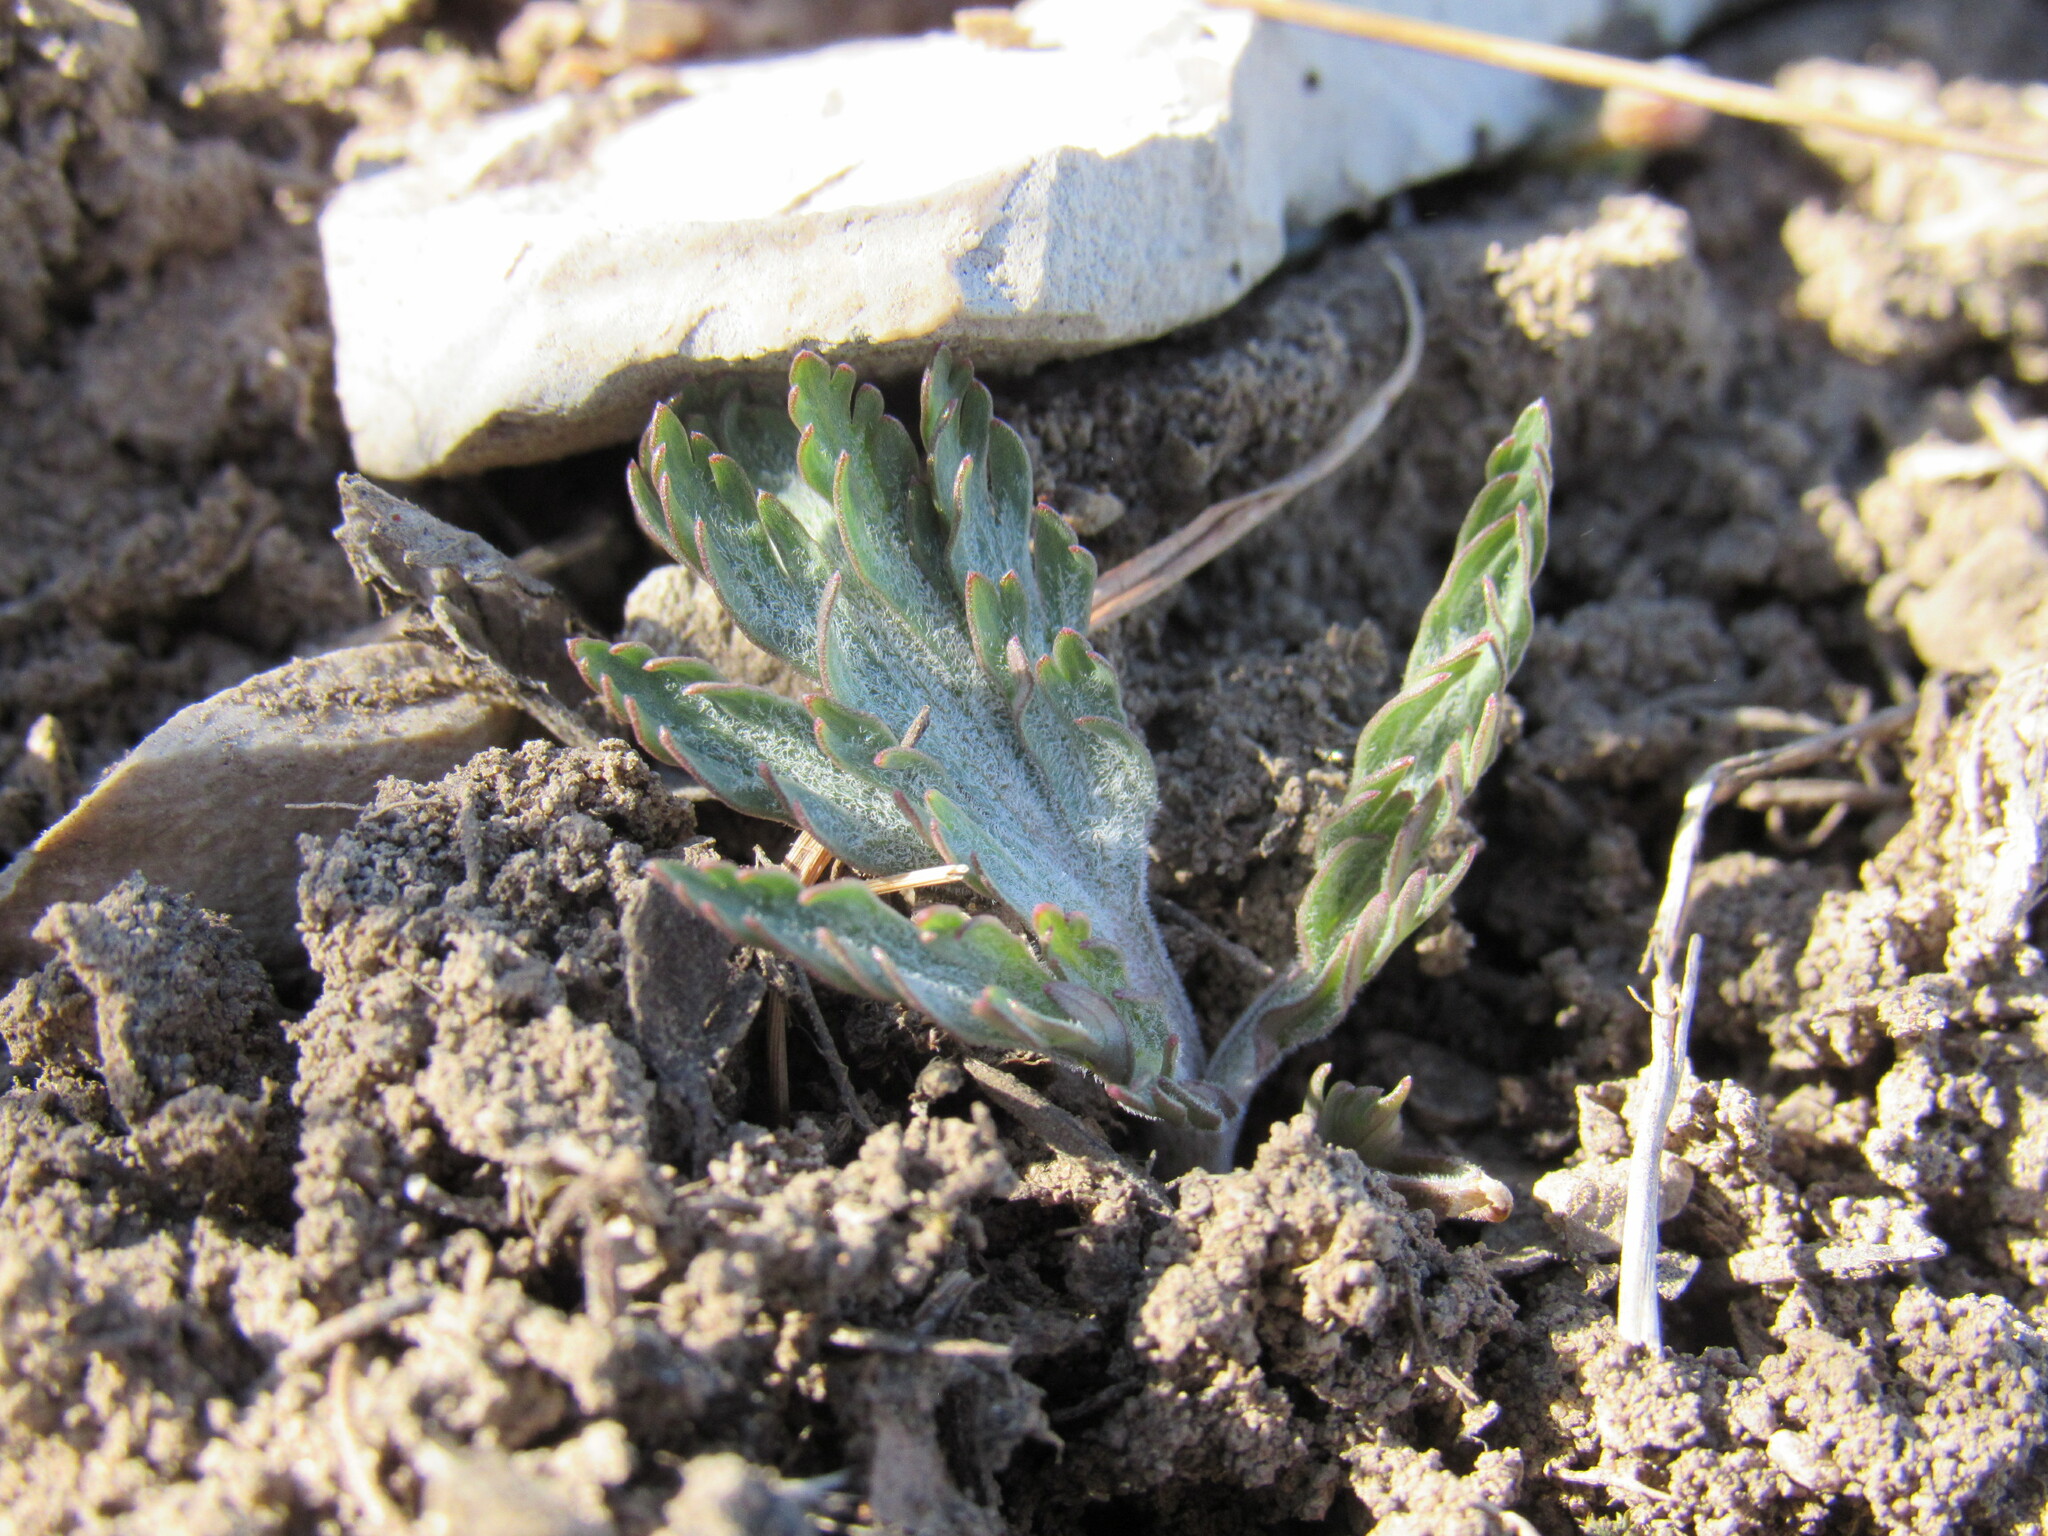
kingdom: Plantae
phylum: Tracheophyta
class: Magnoliopsida
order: Apiales
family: Apiaceae
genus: Lomatium
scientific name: Lomatium orientale
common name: Eastern cous
